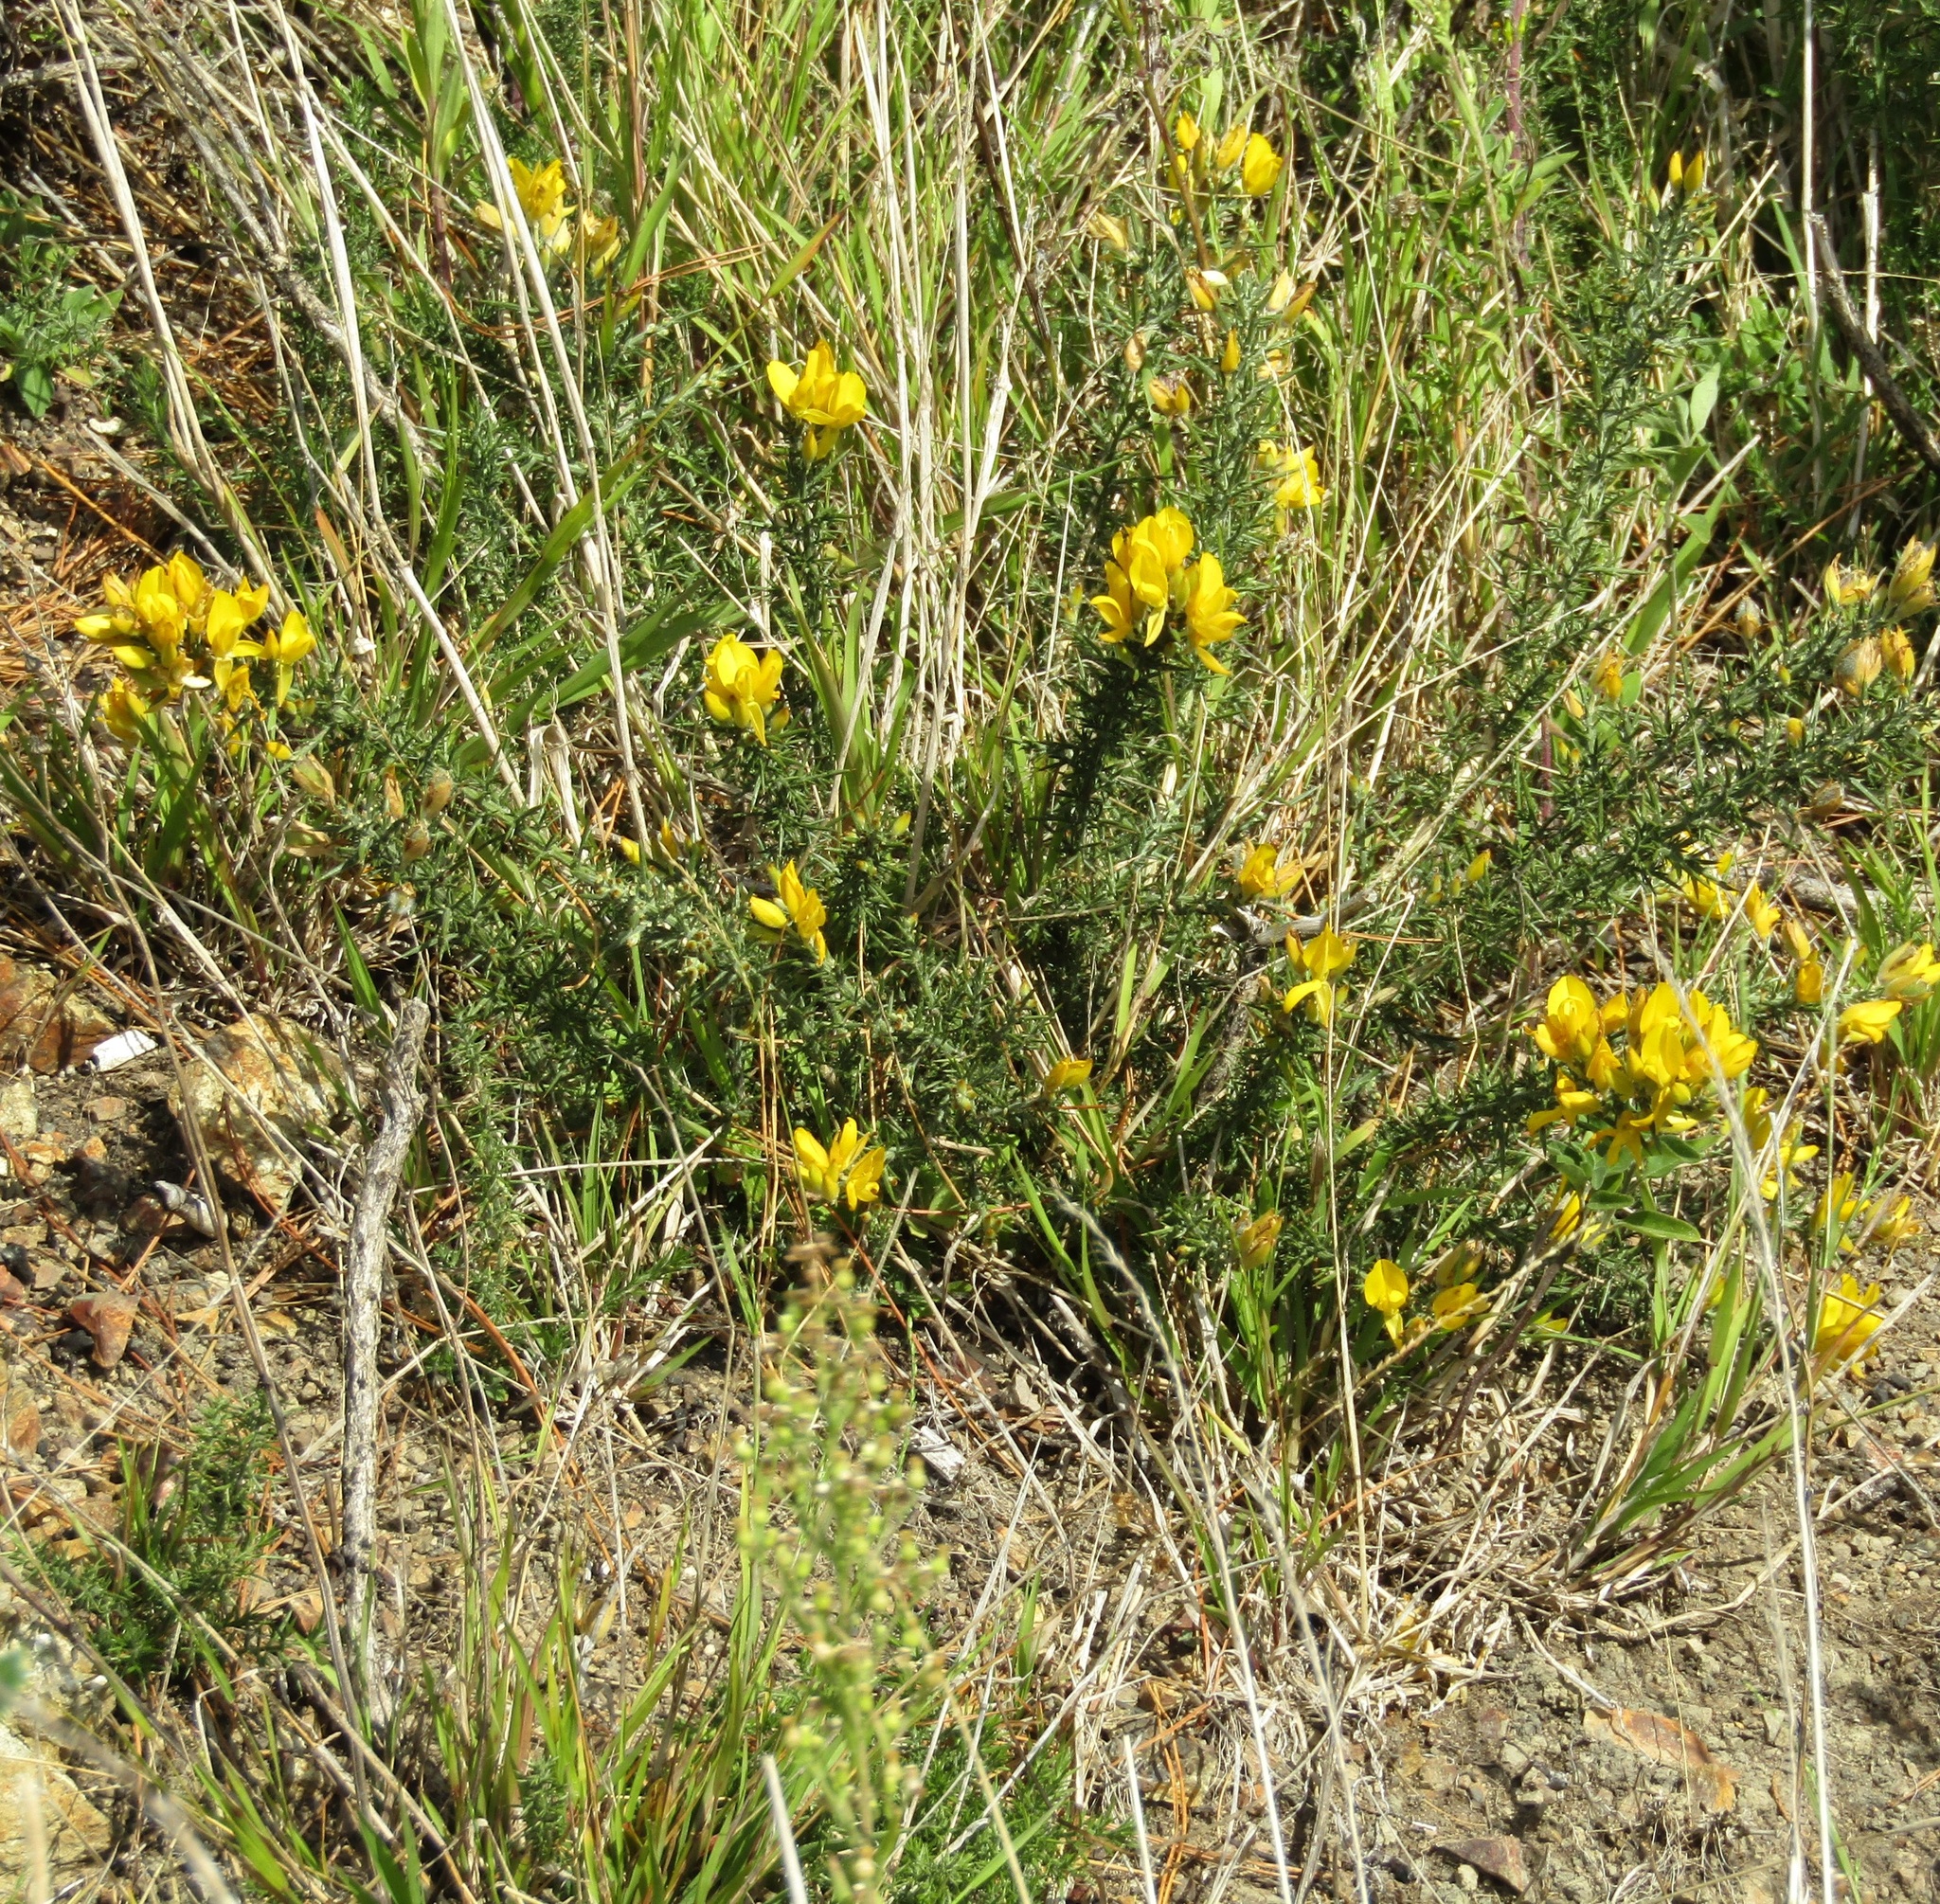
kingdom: Plantae
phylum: Tracheophyta
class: Magnoliopsida
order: Fabales
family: Fabaceae
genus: Ulex
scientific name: Ulex europaeus
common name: Common gorse
